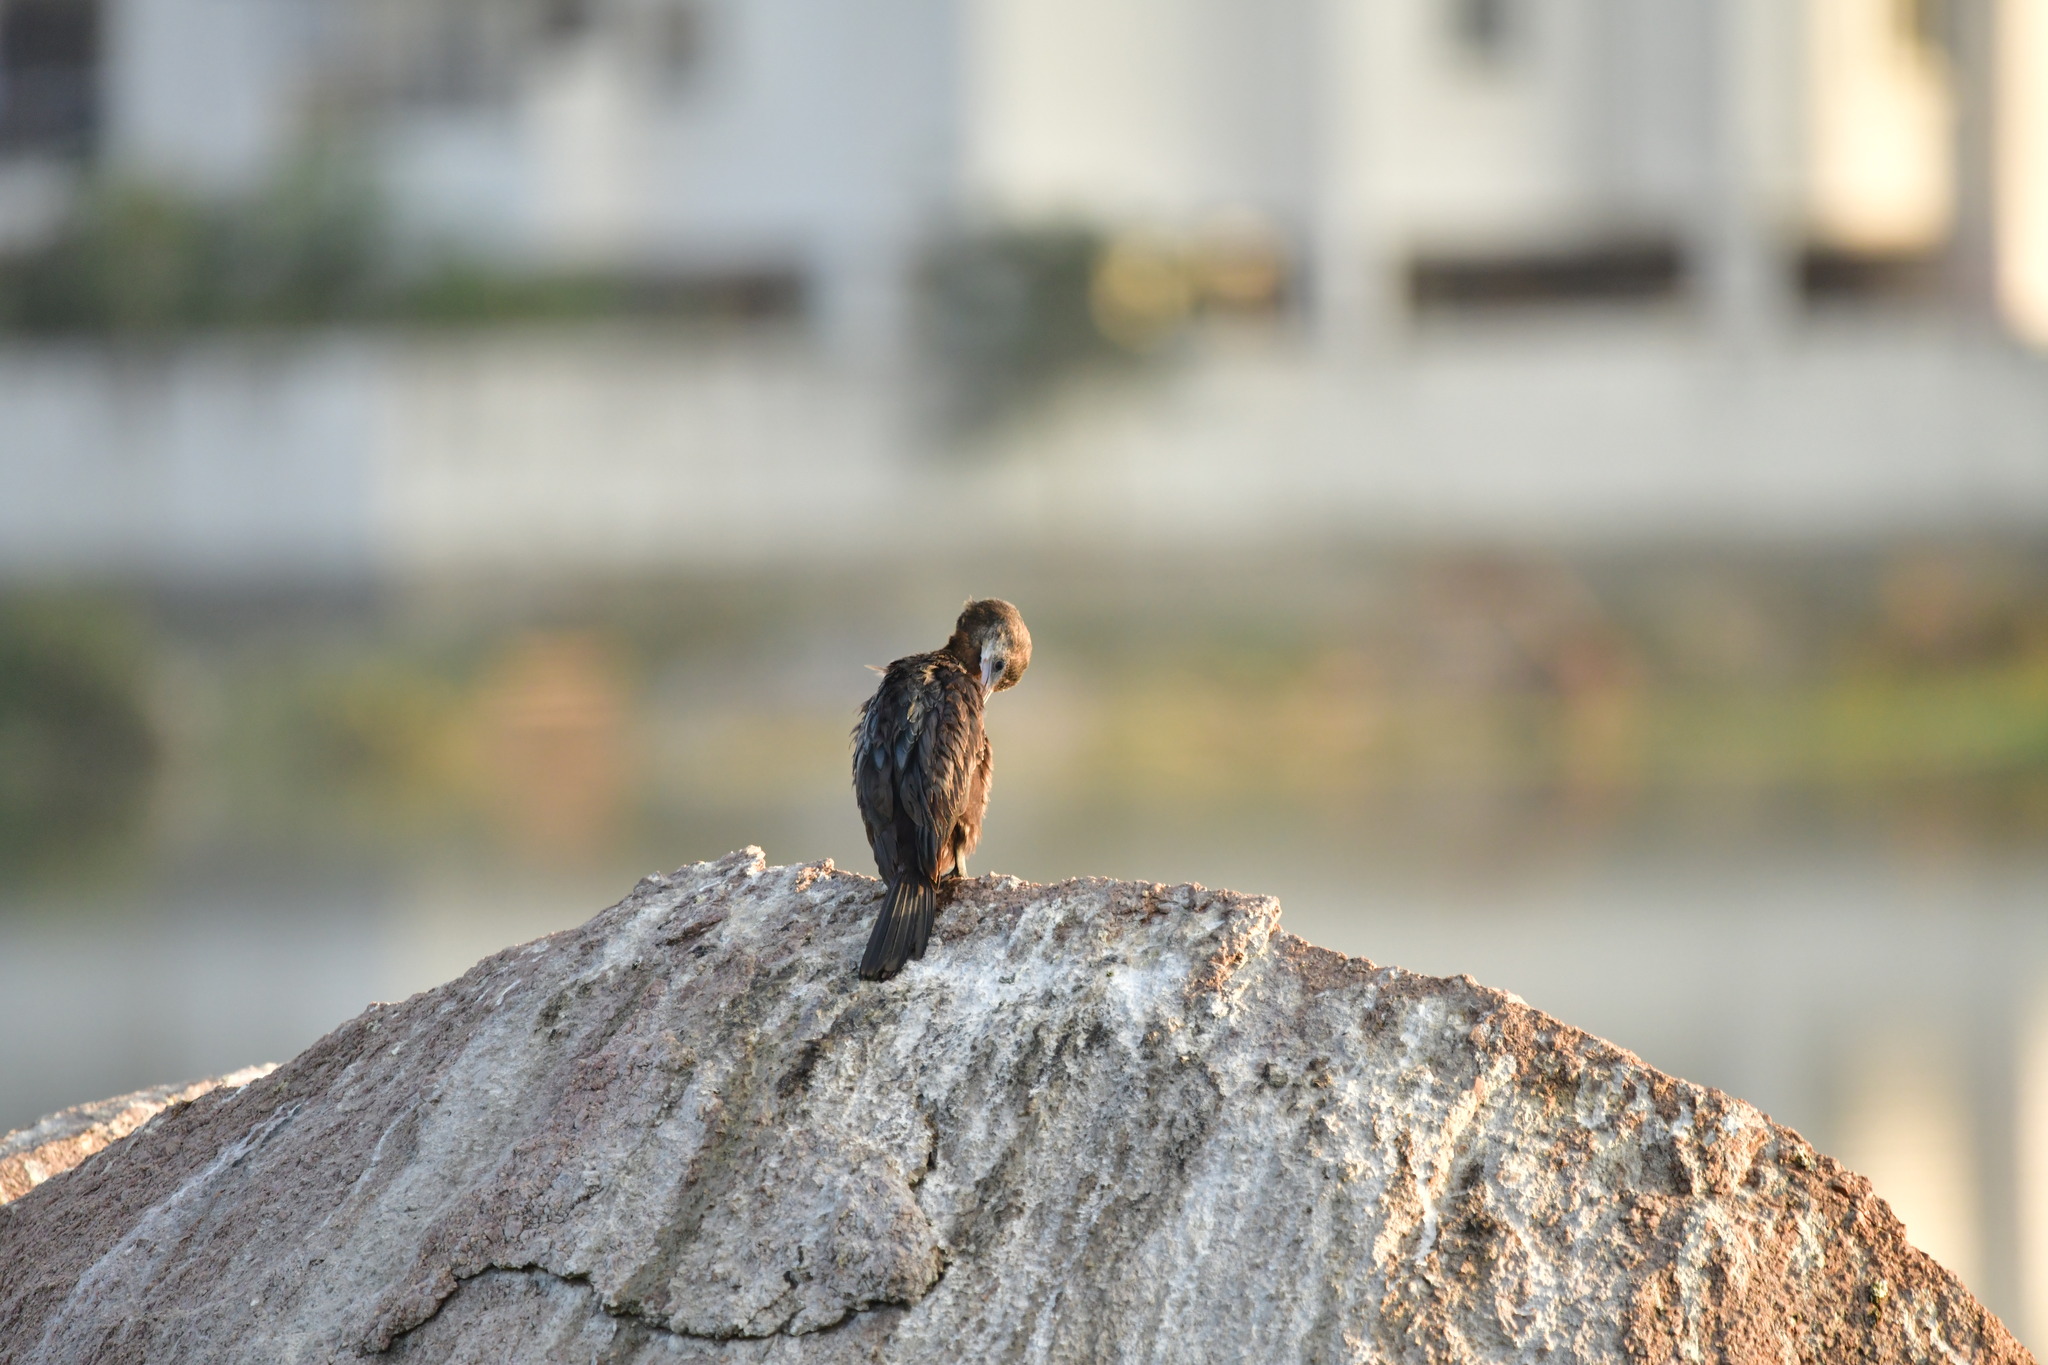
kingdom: Animalia
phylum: Chordata
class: Aves
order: Suliformes
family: Phalacrocoracidae
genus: Microcarbo
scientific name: Microcarbo niger
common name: Little cormorant
